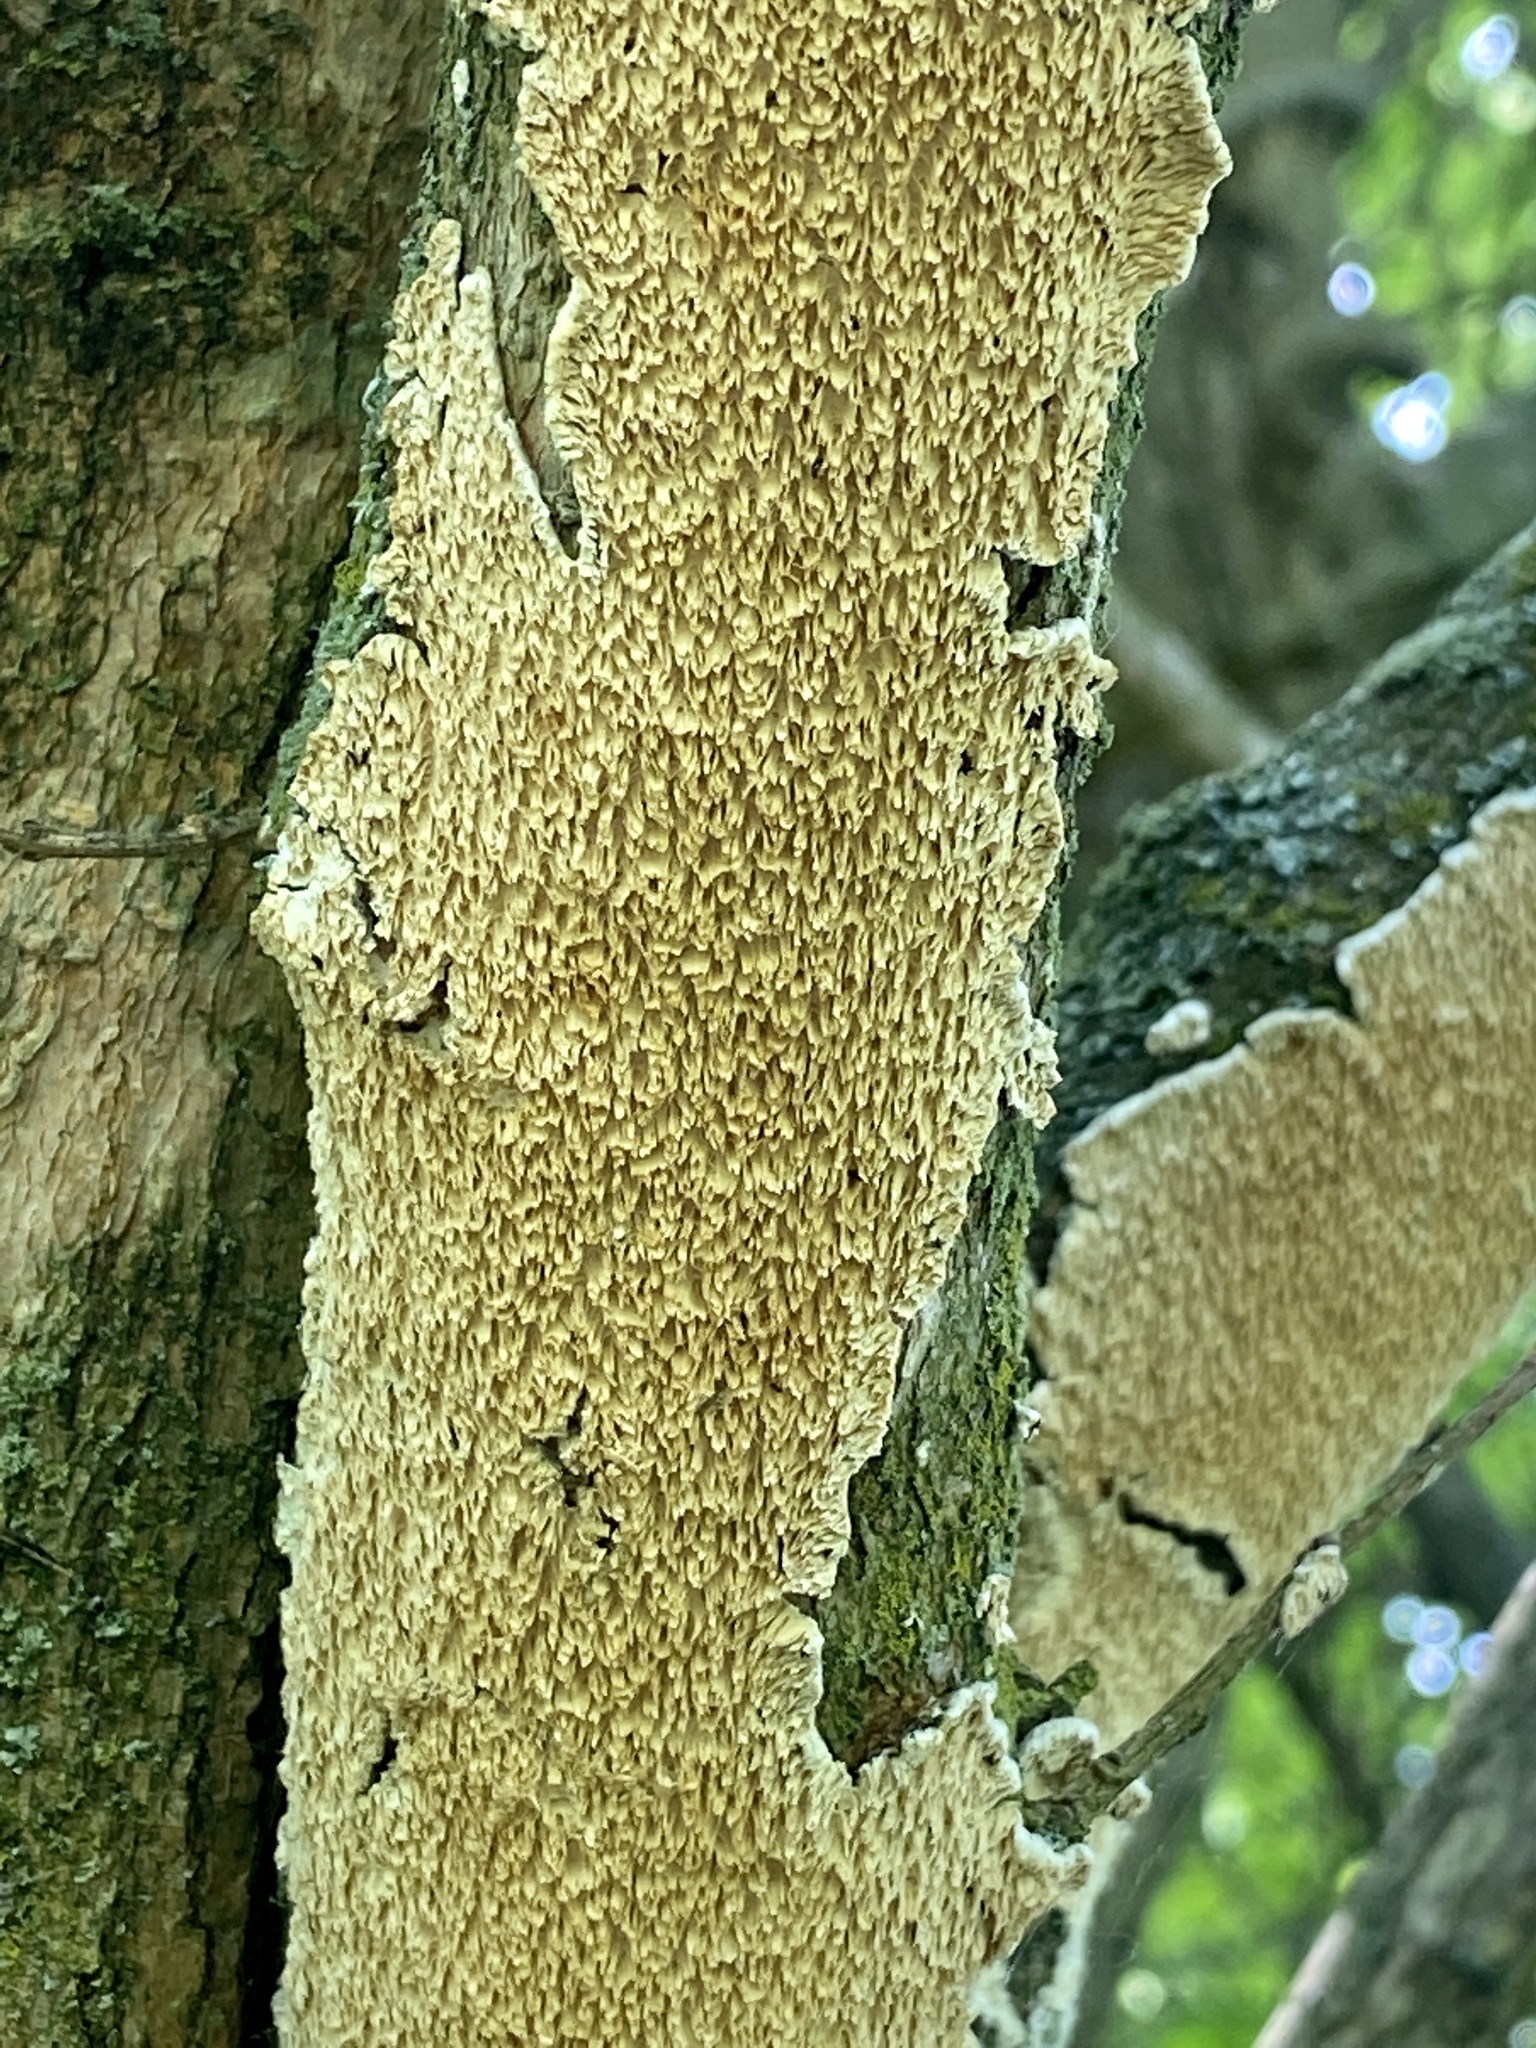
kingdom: Fungi
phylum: Basidiomycota
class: Agaricomycetes
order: Polyporales
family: Irpicaceae
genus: Irpex
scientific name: Irpex lacteus
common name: Milk-white toothed polypore
